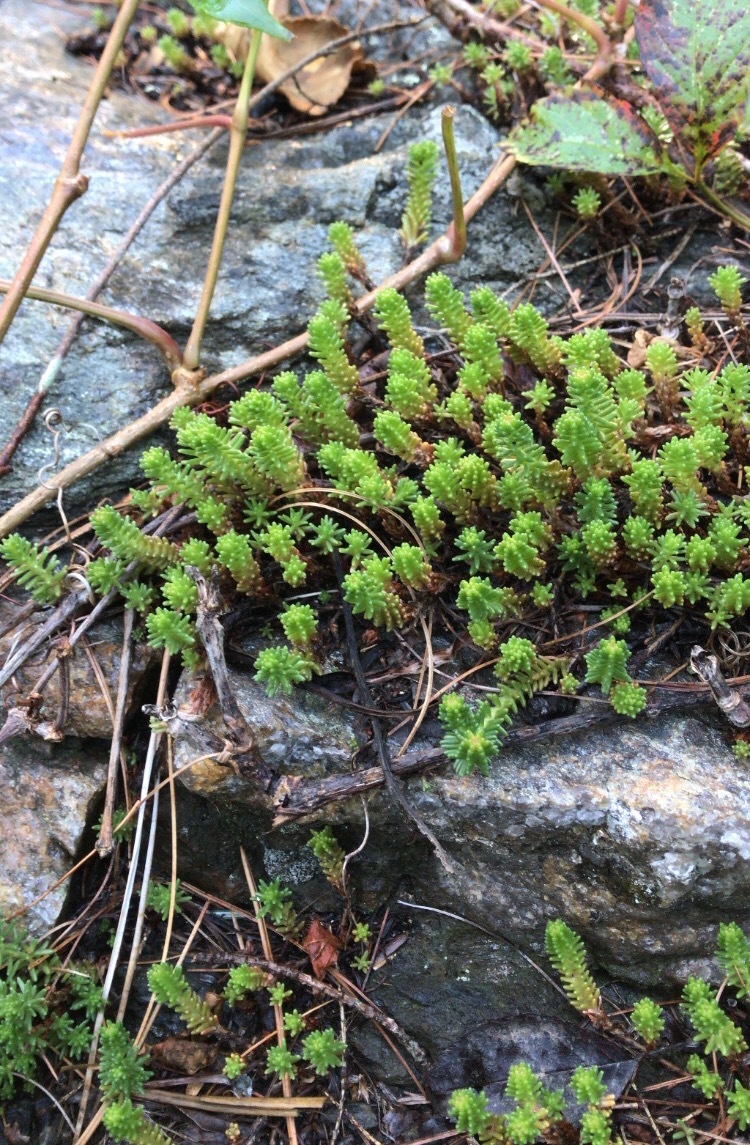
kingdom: Plantae
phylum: Tracheophyta
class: Magnoliopsida
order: Saxifragales
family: Crassulaceae
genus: Sedum
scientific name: Sedum sexangulare
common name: Tasteless stonecrop
